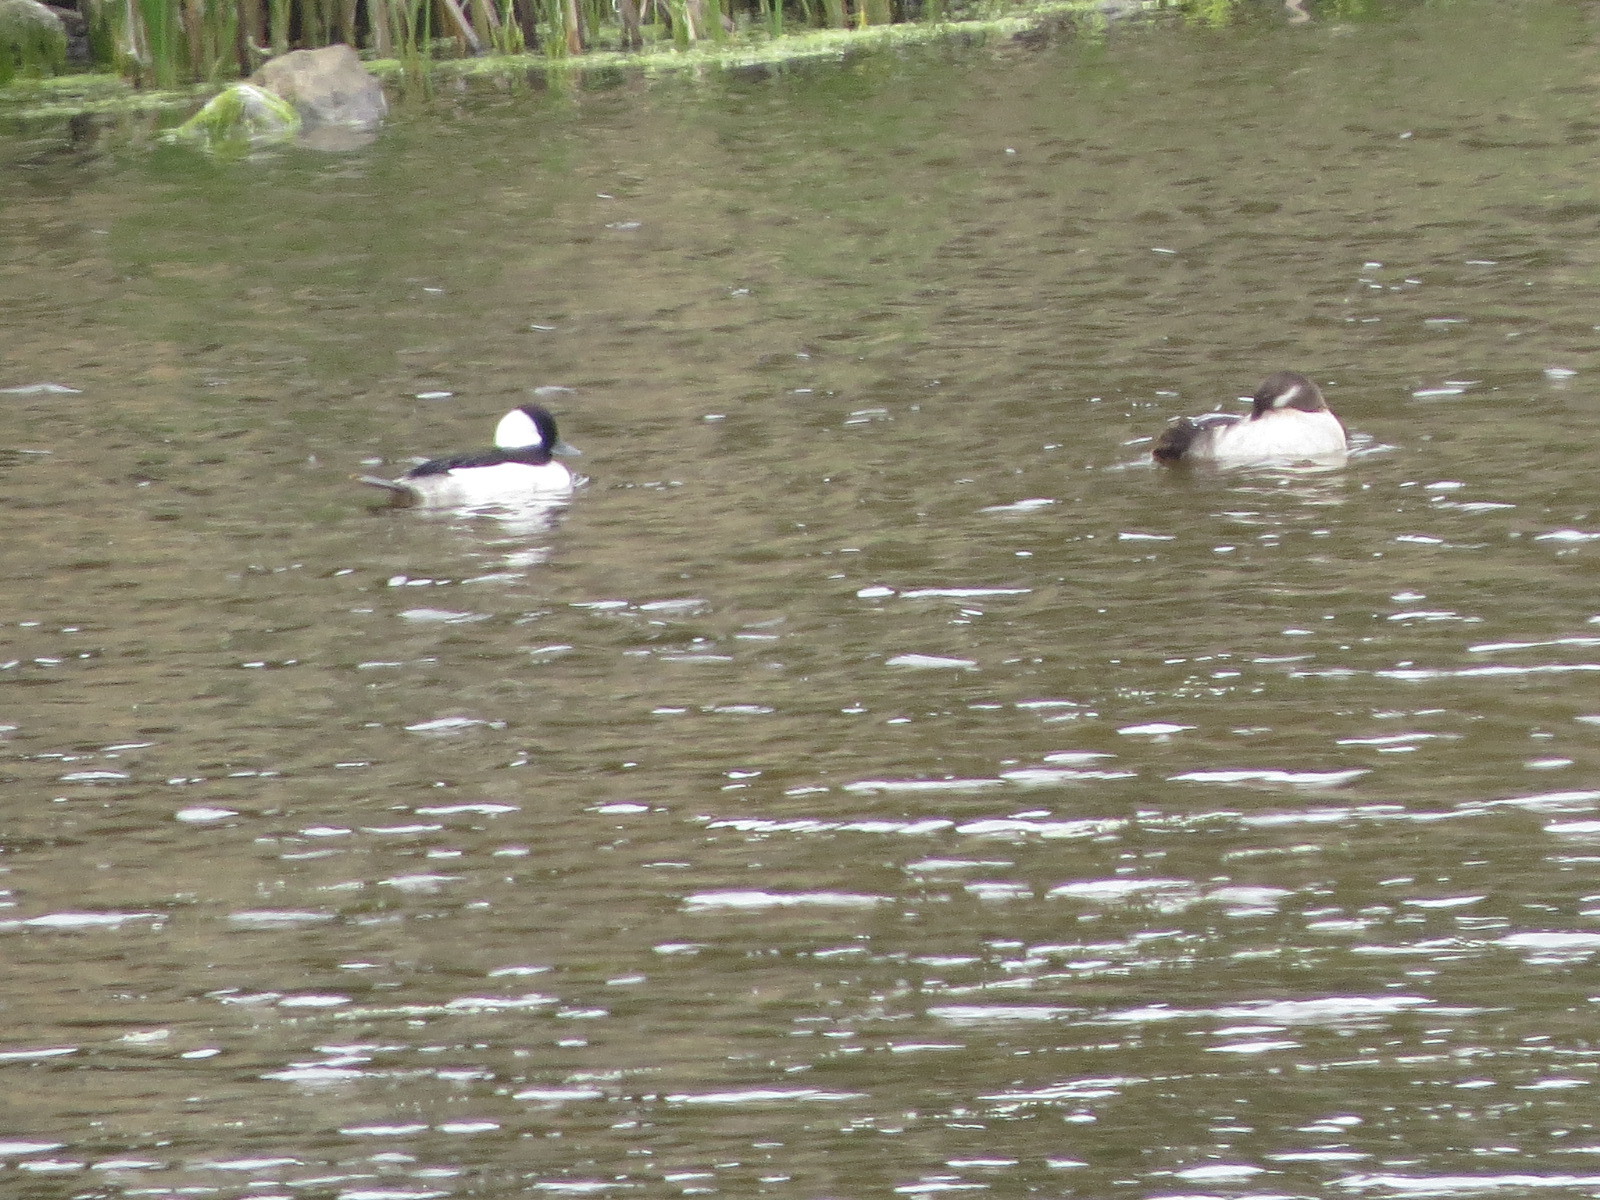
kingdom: Animalia
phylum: Chordata
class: Aves
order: Anseriformes
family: Anatidae
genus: Bucephala
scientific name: Bucephala albeola
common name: Bufflehead
